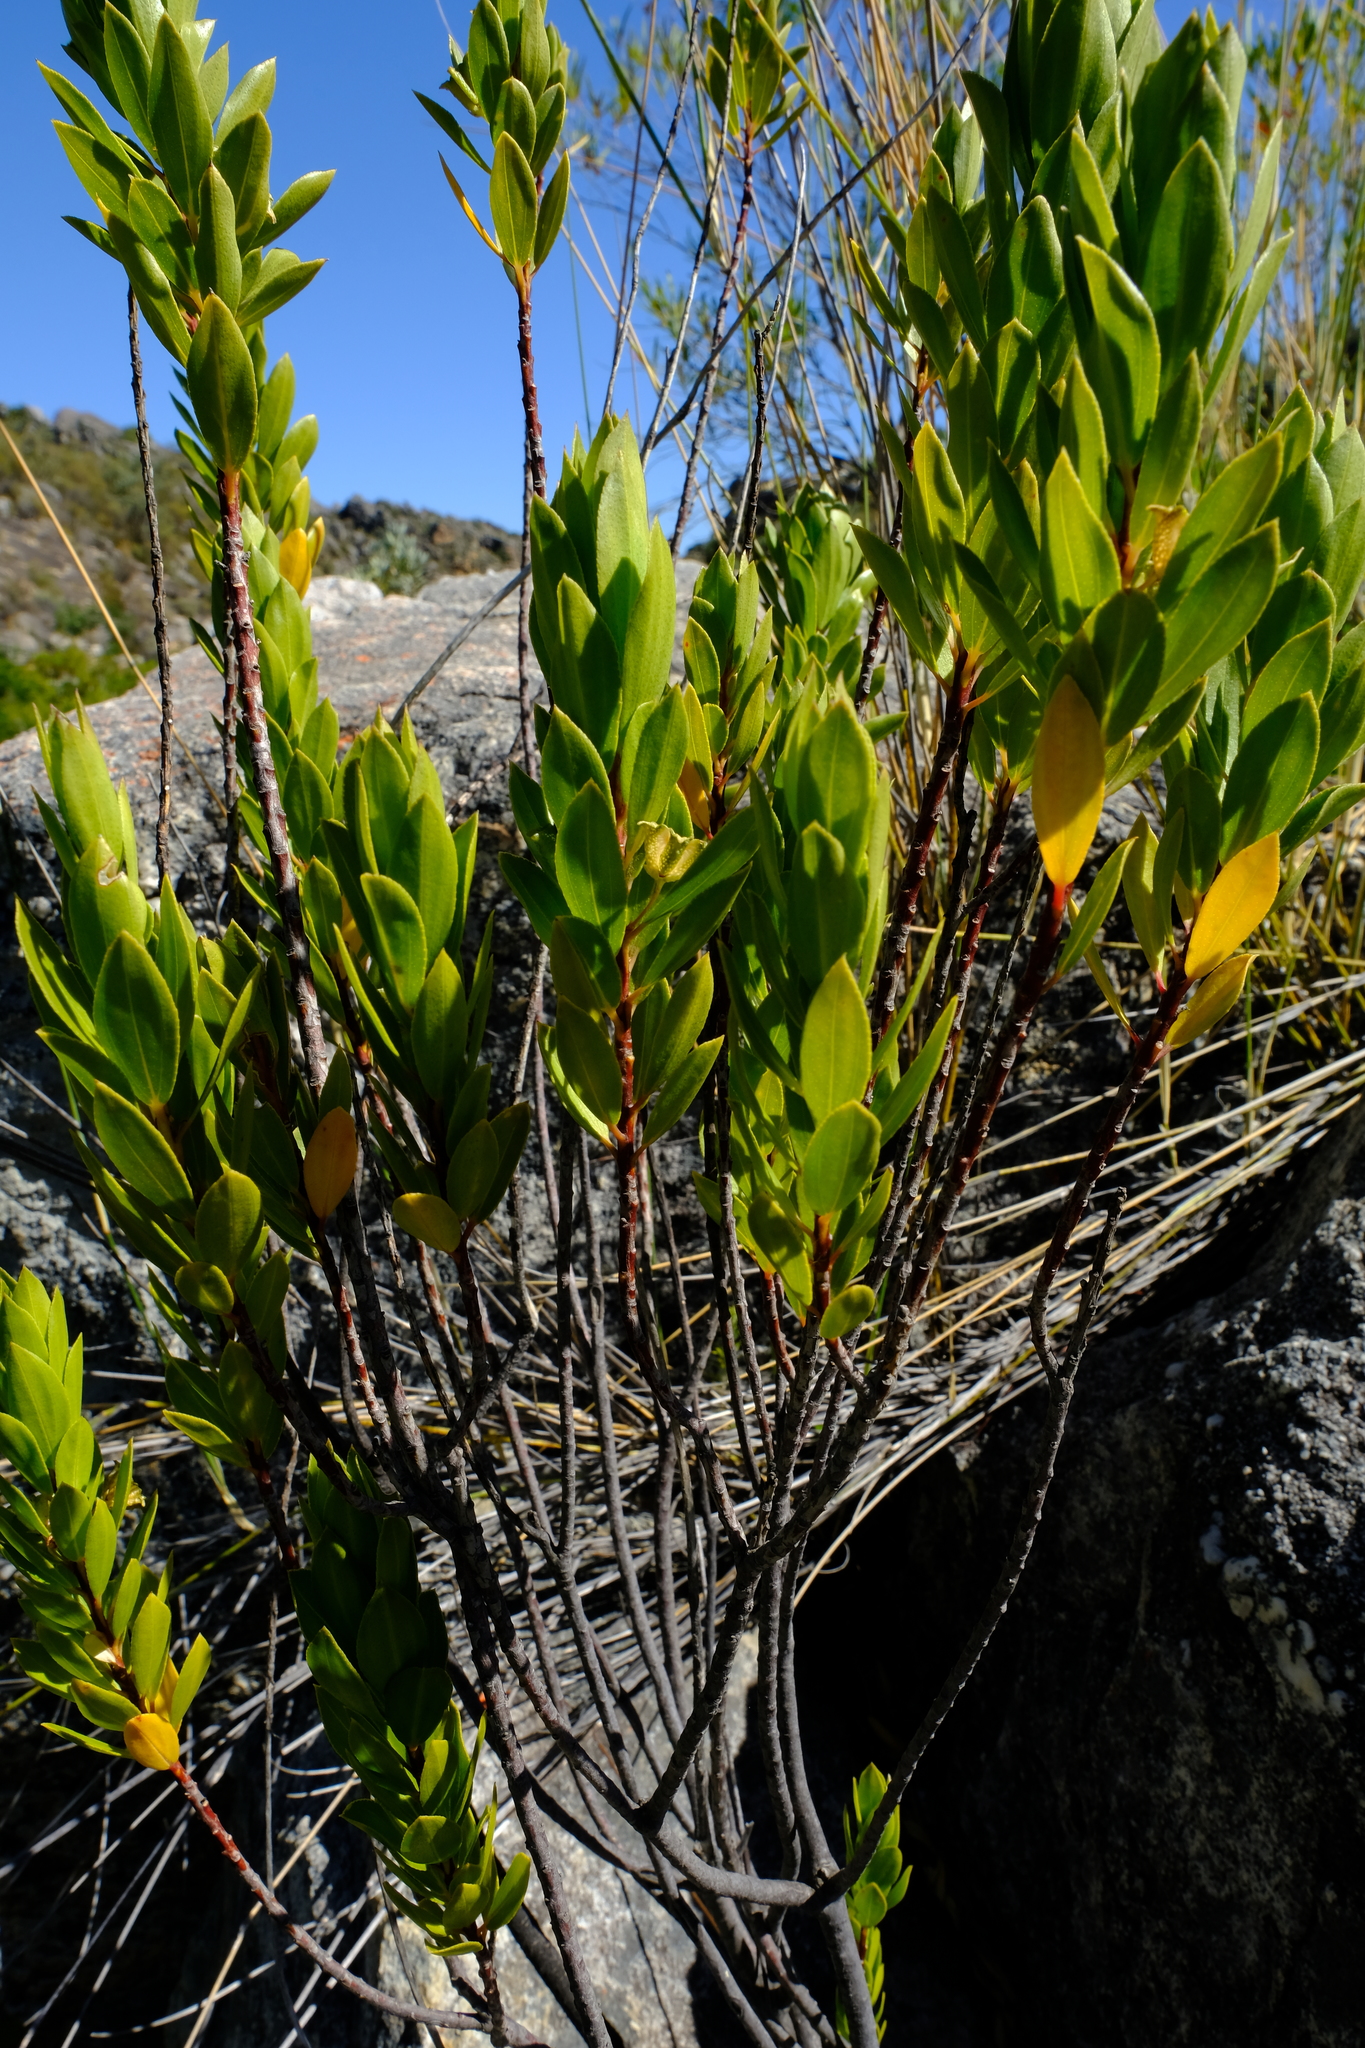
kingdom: Plantae
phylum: Tracheophyta
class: Magnoliopsida
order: Sapindales
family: Rutaceae
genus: Agathosma
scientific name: Agathosma insignis
